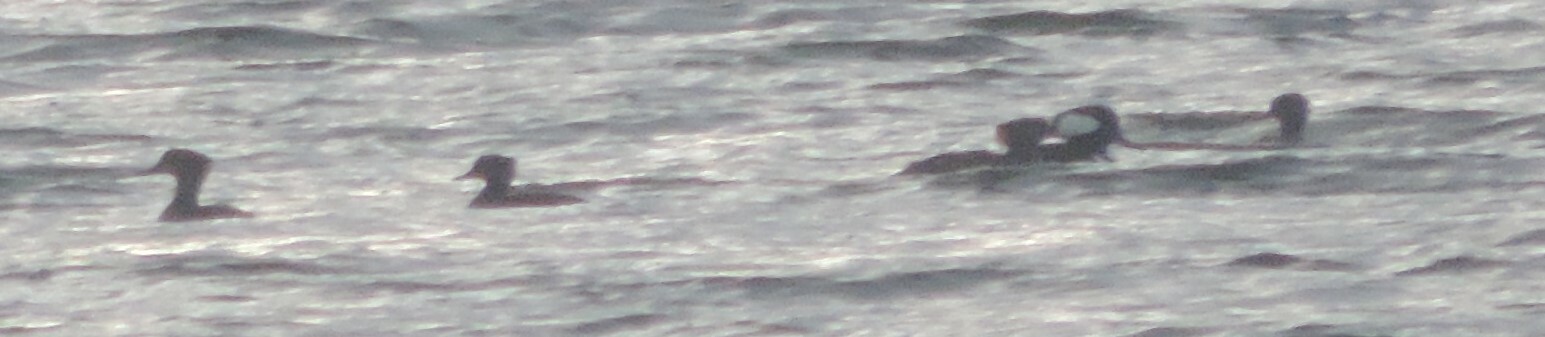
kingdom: Animalia
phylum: Chordata
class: Aves
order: Anseriformes
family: Anatidae
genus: Lophodytes
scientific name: Lophodytes cucullatus
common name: Hooded merganser
